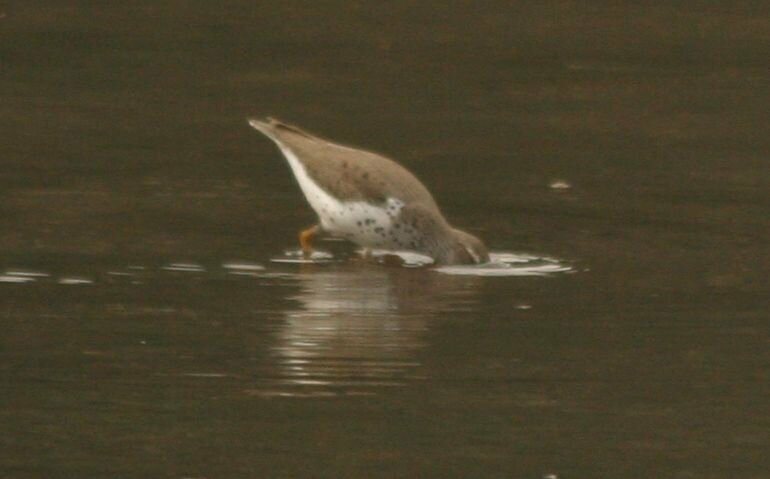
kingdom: Animalia
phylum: Chordata
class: Aves
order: Charadriiformes
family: Scolopacidae
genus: Actitis
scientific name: Actitis macularius
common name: Spotted sandpiper
